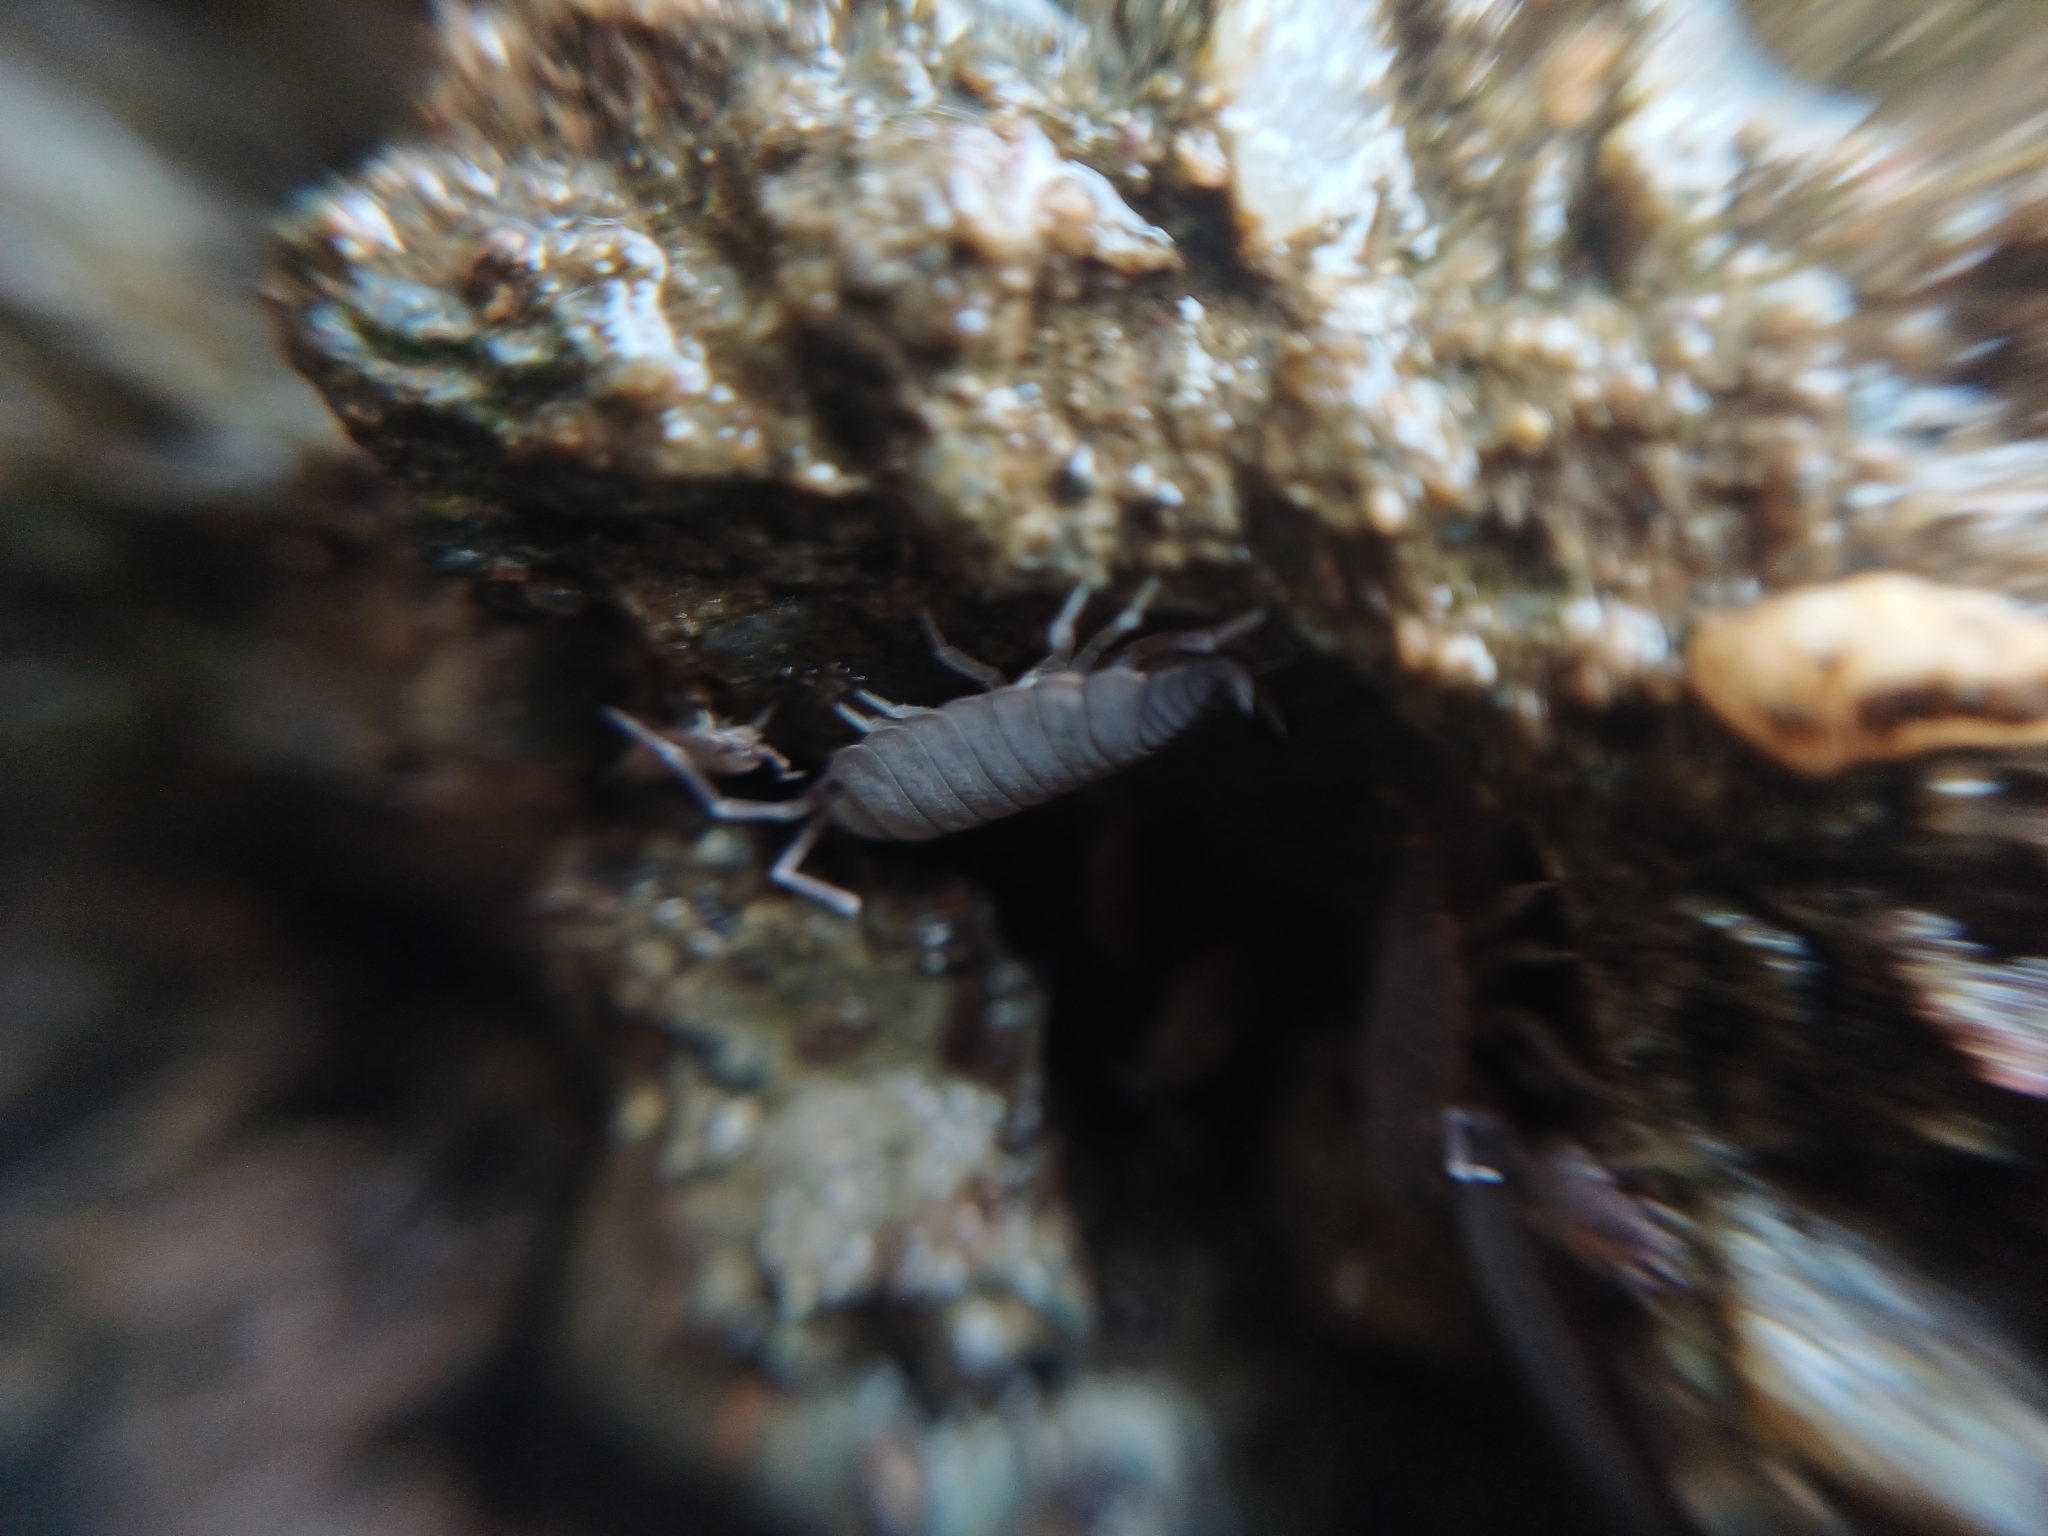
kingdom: Animalia
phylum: Arthropoda
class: Malacostraca
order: Isopoda
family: Porcellionidae
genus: Porcellionides
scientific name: Porcellionides floria
